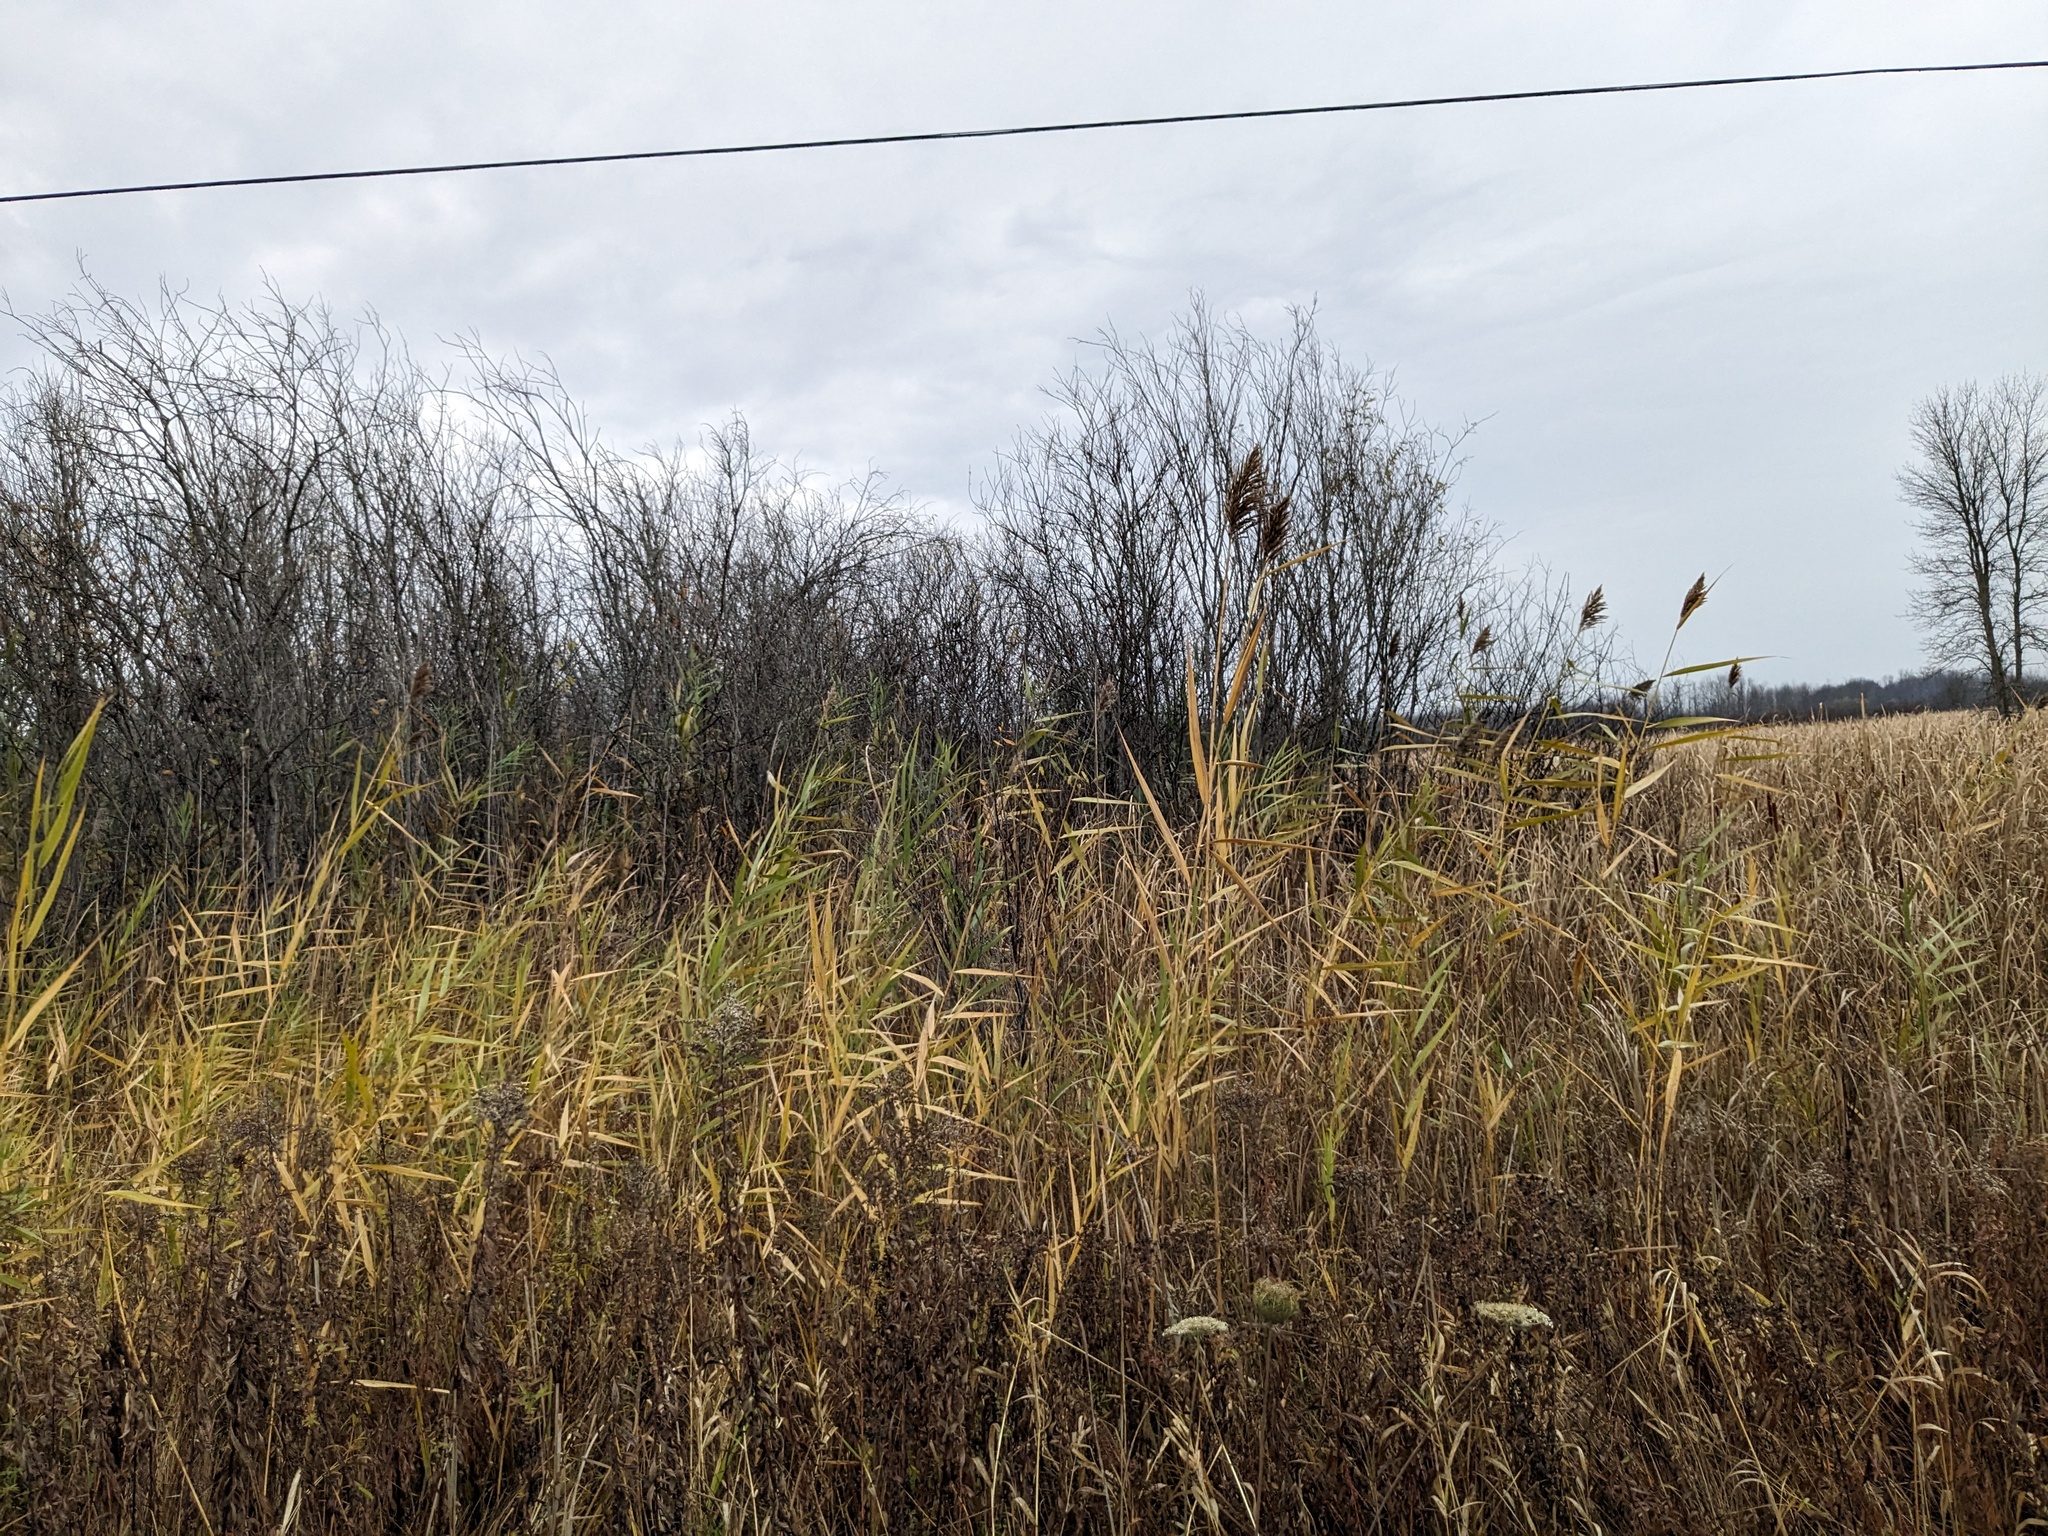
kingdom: Plantae
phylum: Tracheophyta
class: Liliopsida
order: Poales
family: Poaceae
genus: Phragmites
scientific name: Phragmites australis
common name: Common reed
